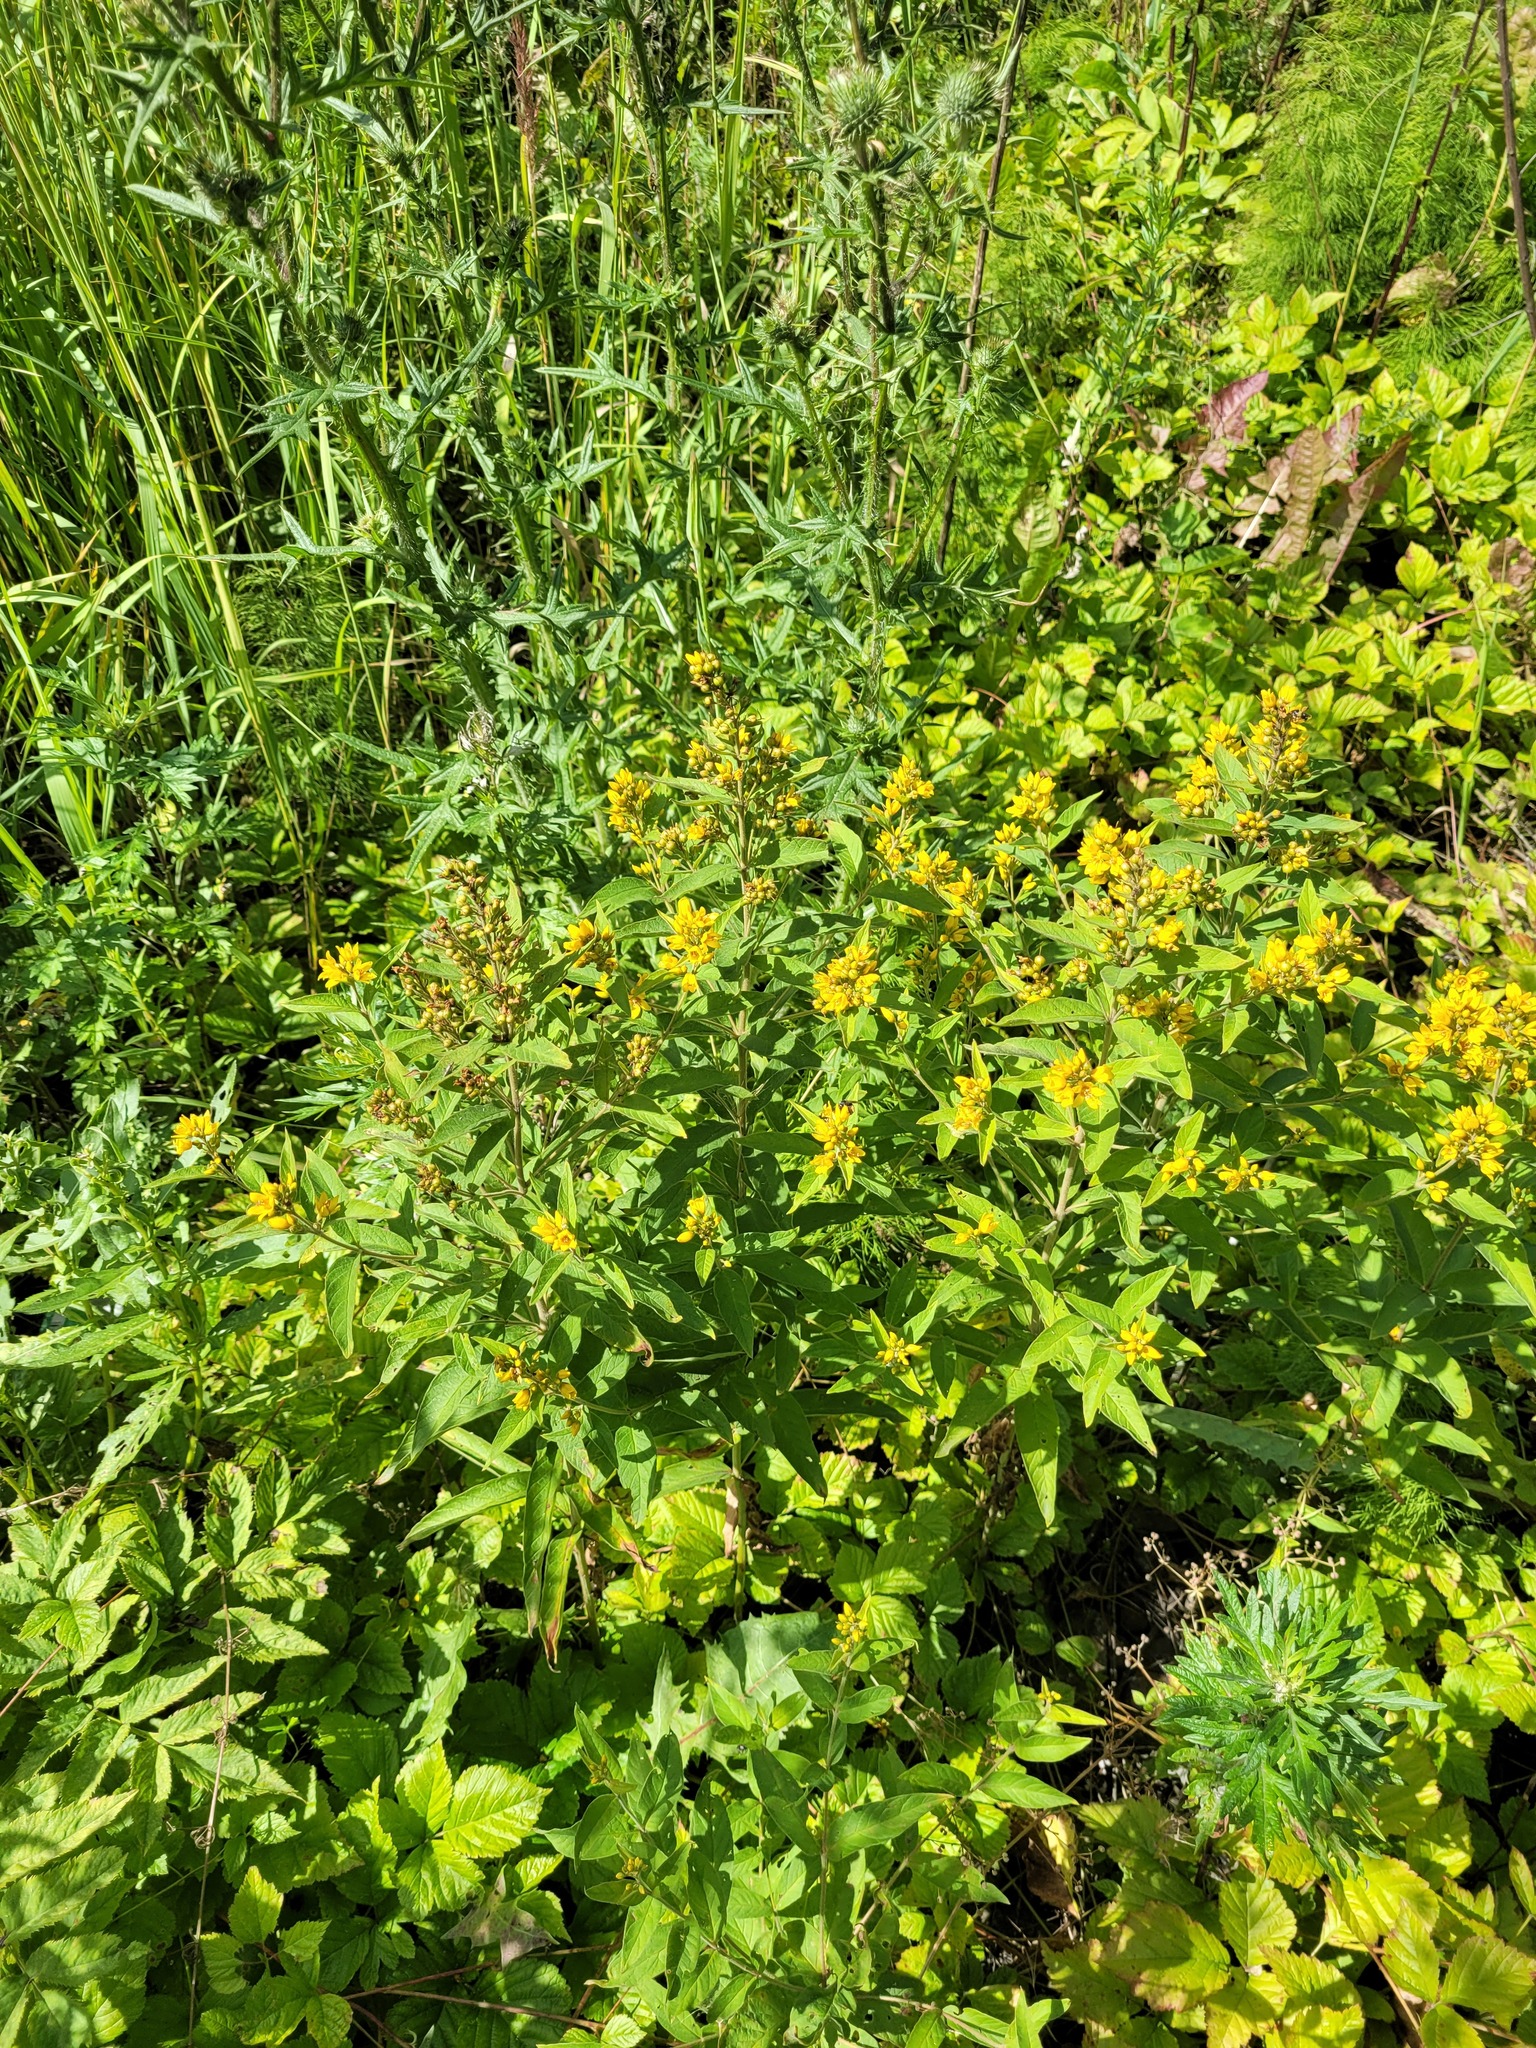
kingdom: Plantae
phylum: Tracheophyta
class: Magnoliopsida
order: Ericales
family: Primulaceae
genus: Lysimachia
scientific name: Lysimachia vulgaris
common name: Yellow loosestrife
